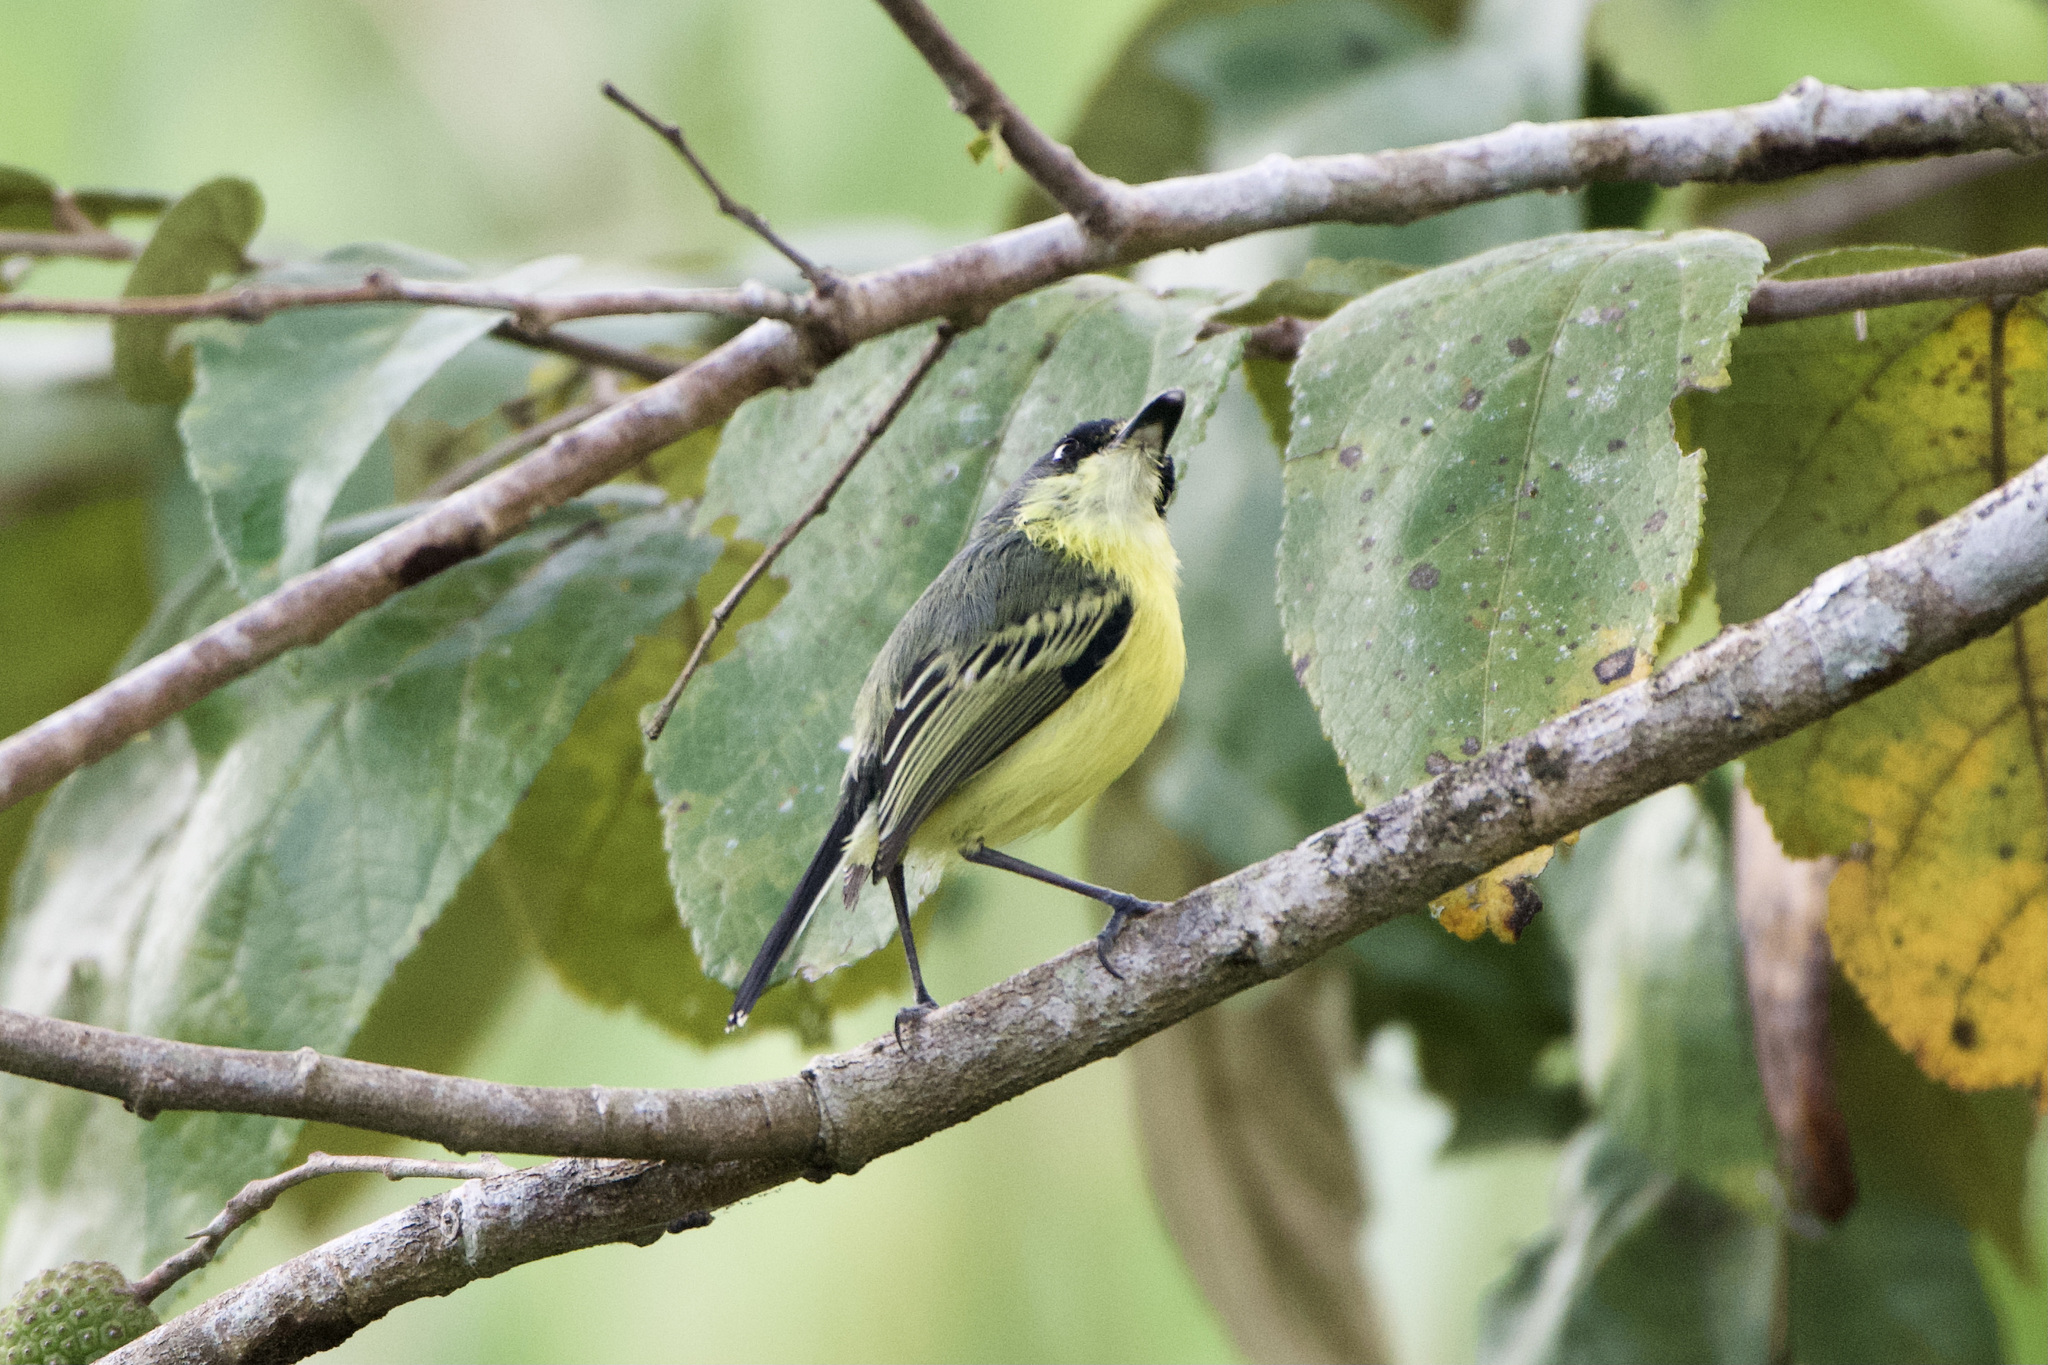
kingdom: Animalia
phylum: Chordata
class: Aves
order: Passeriformes
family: Tyrannidae
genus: Todirostrum
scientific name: Todirostrum cinereum
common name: Common tody-flycatcher
